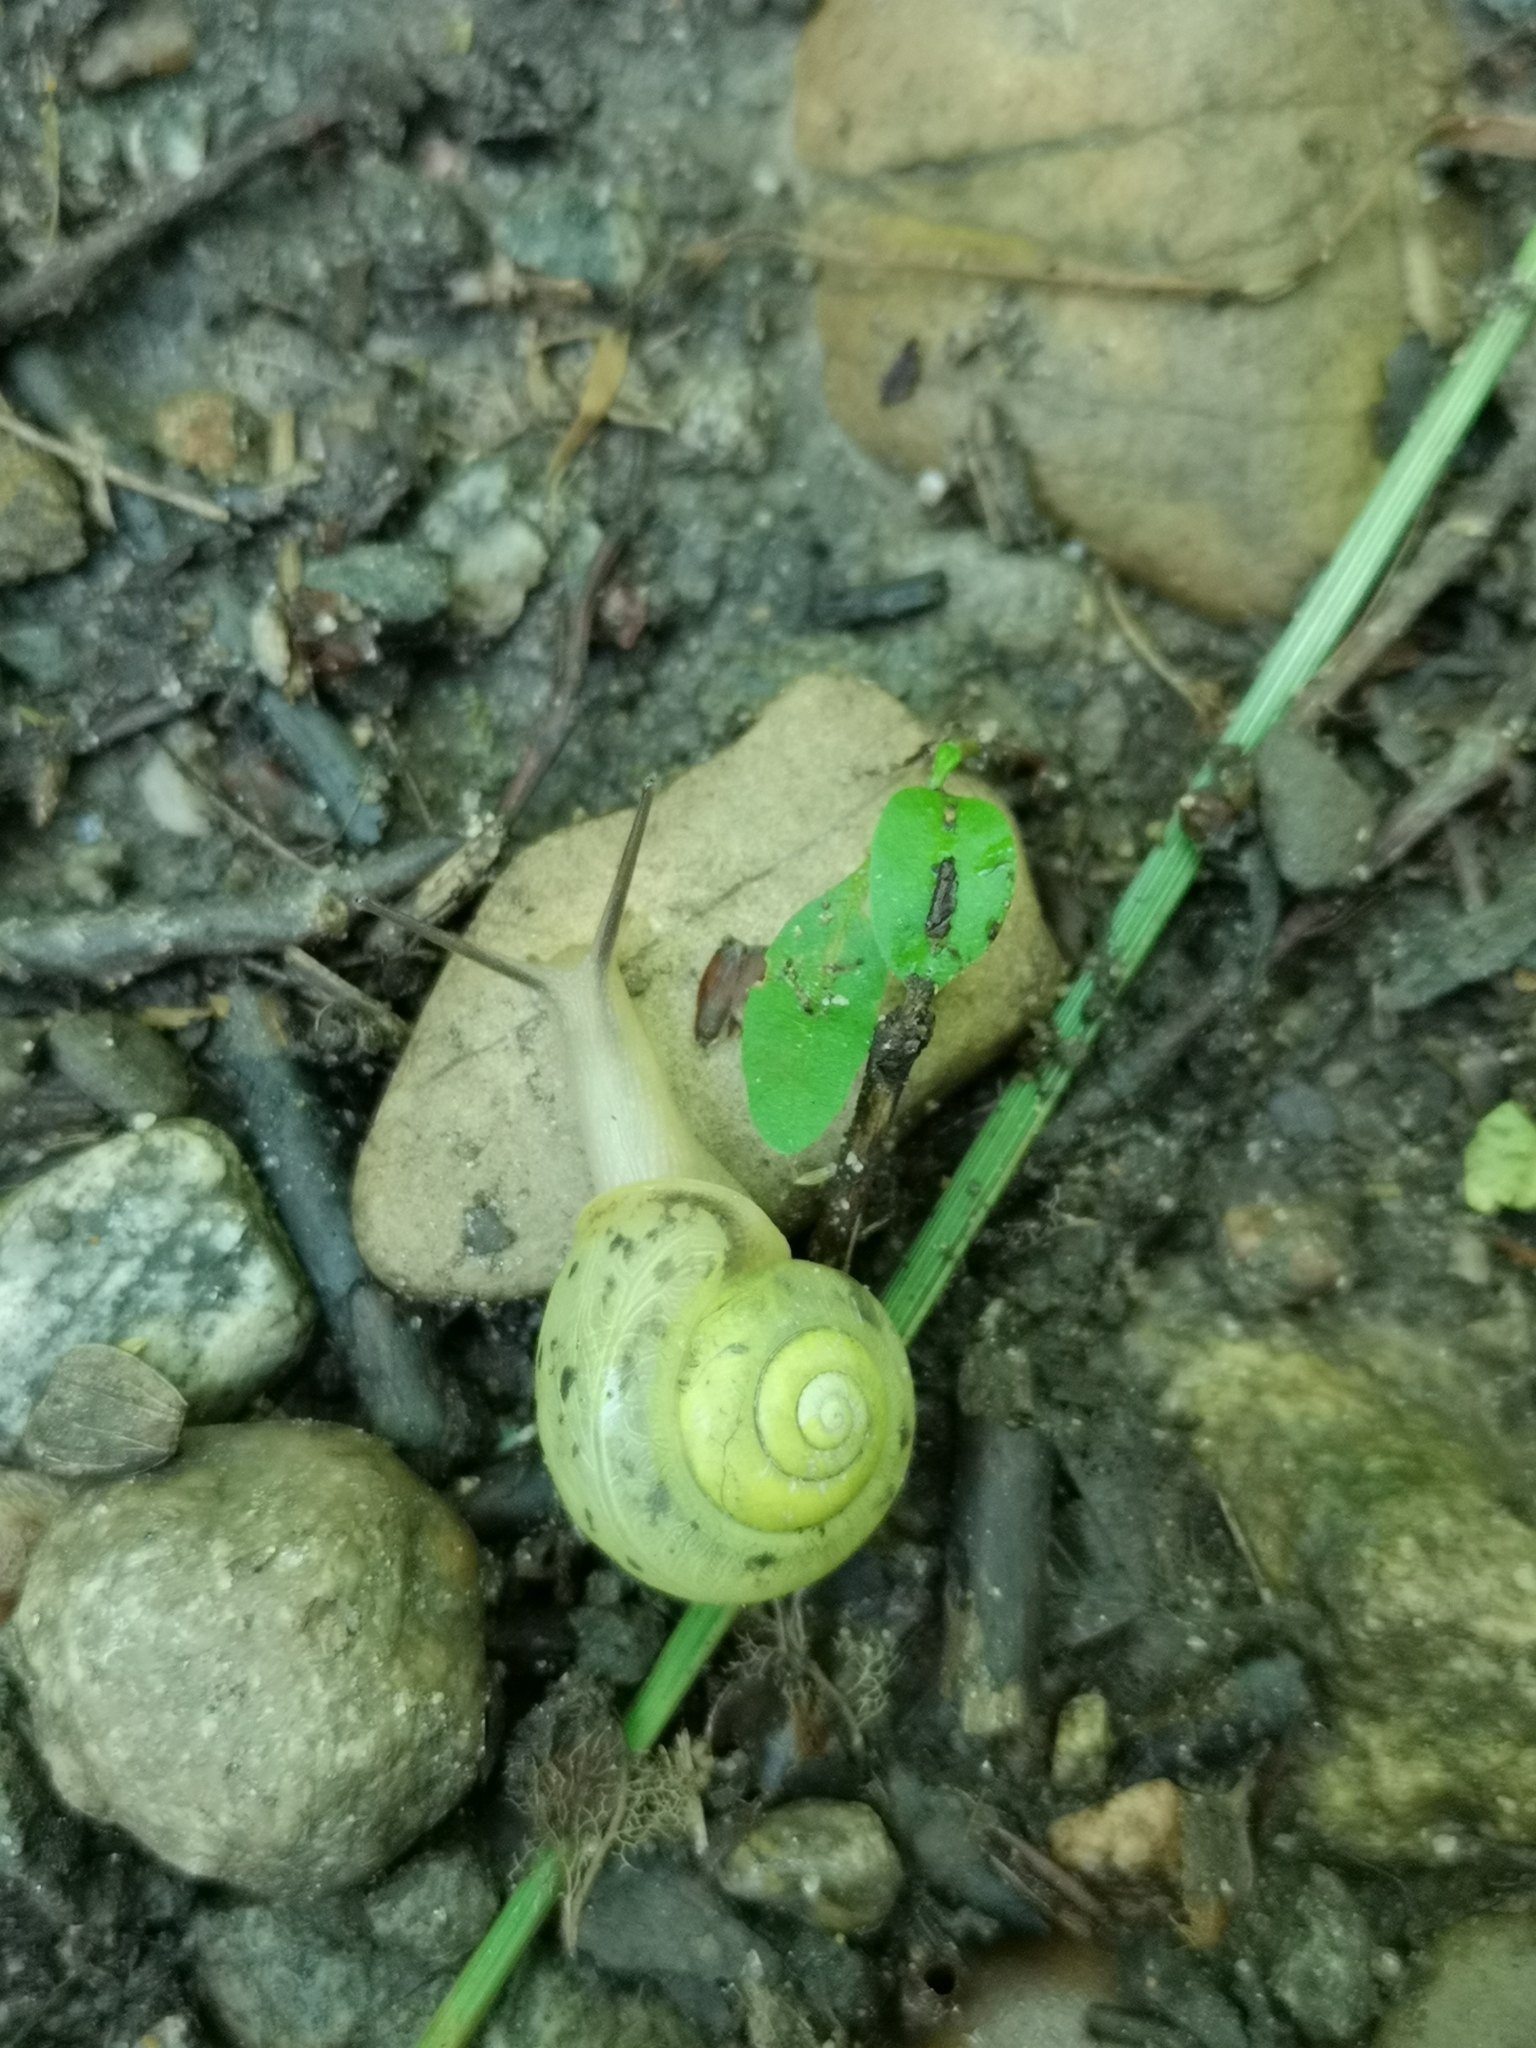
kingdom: Animalia
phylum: Mollusca
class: Gastropoda
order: Stylommatophora
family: Camaenidae
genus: Fruticicola
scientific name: Fruticicola fruticum
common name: Bush snail
